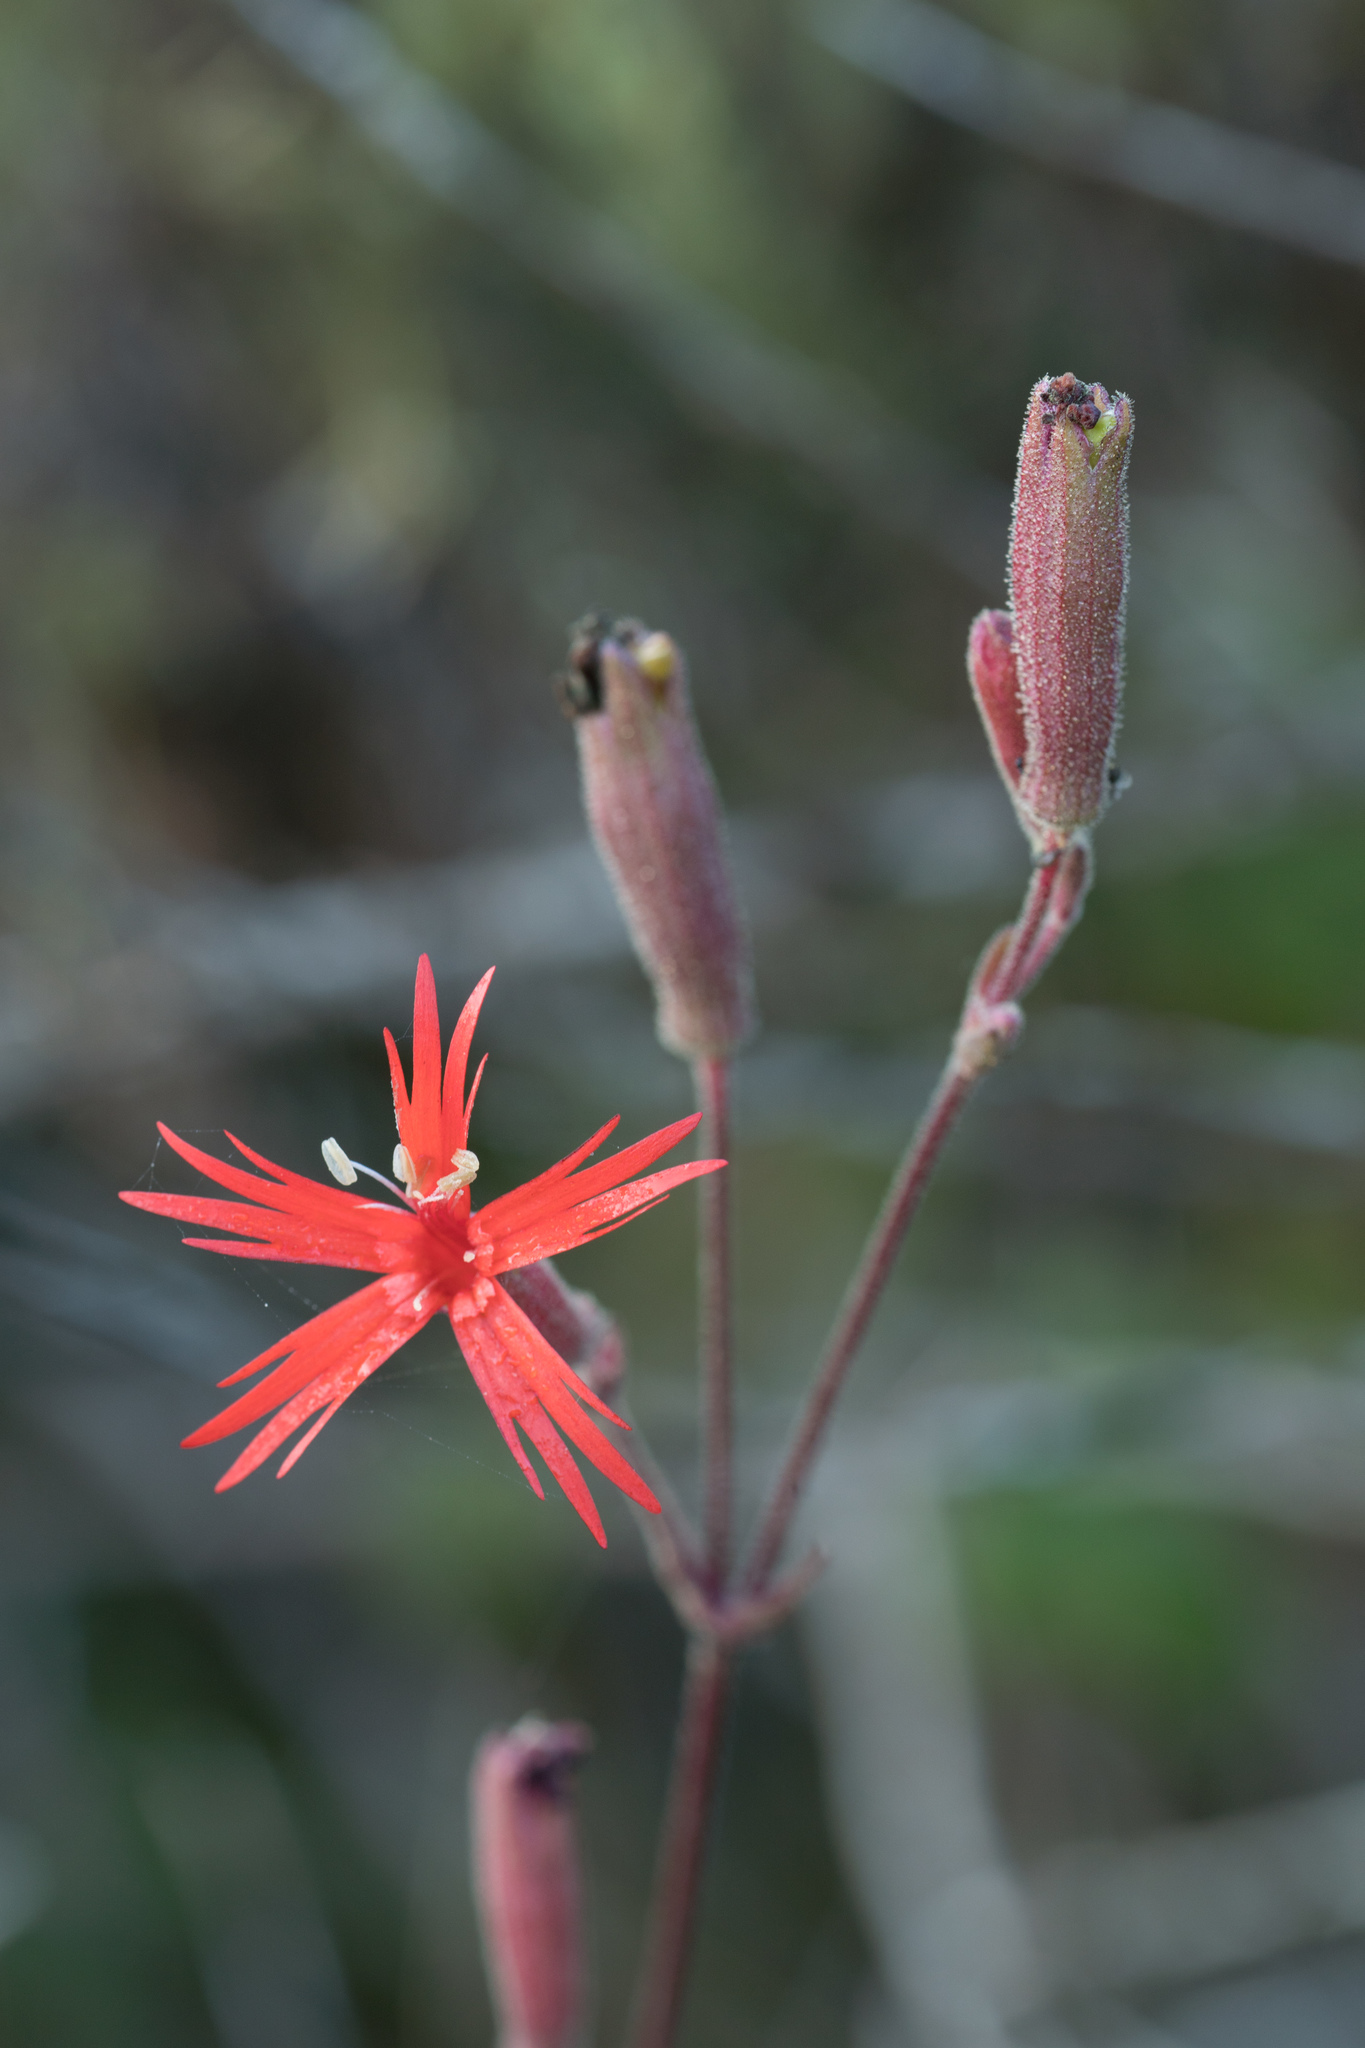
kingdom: Plantae
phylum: Tracheophyta
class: Magnoliopsida
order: Caryophyllales
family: Caryophyllaceae
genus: Silene
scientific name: Silene laciniata
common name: Indian-pink
